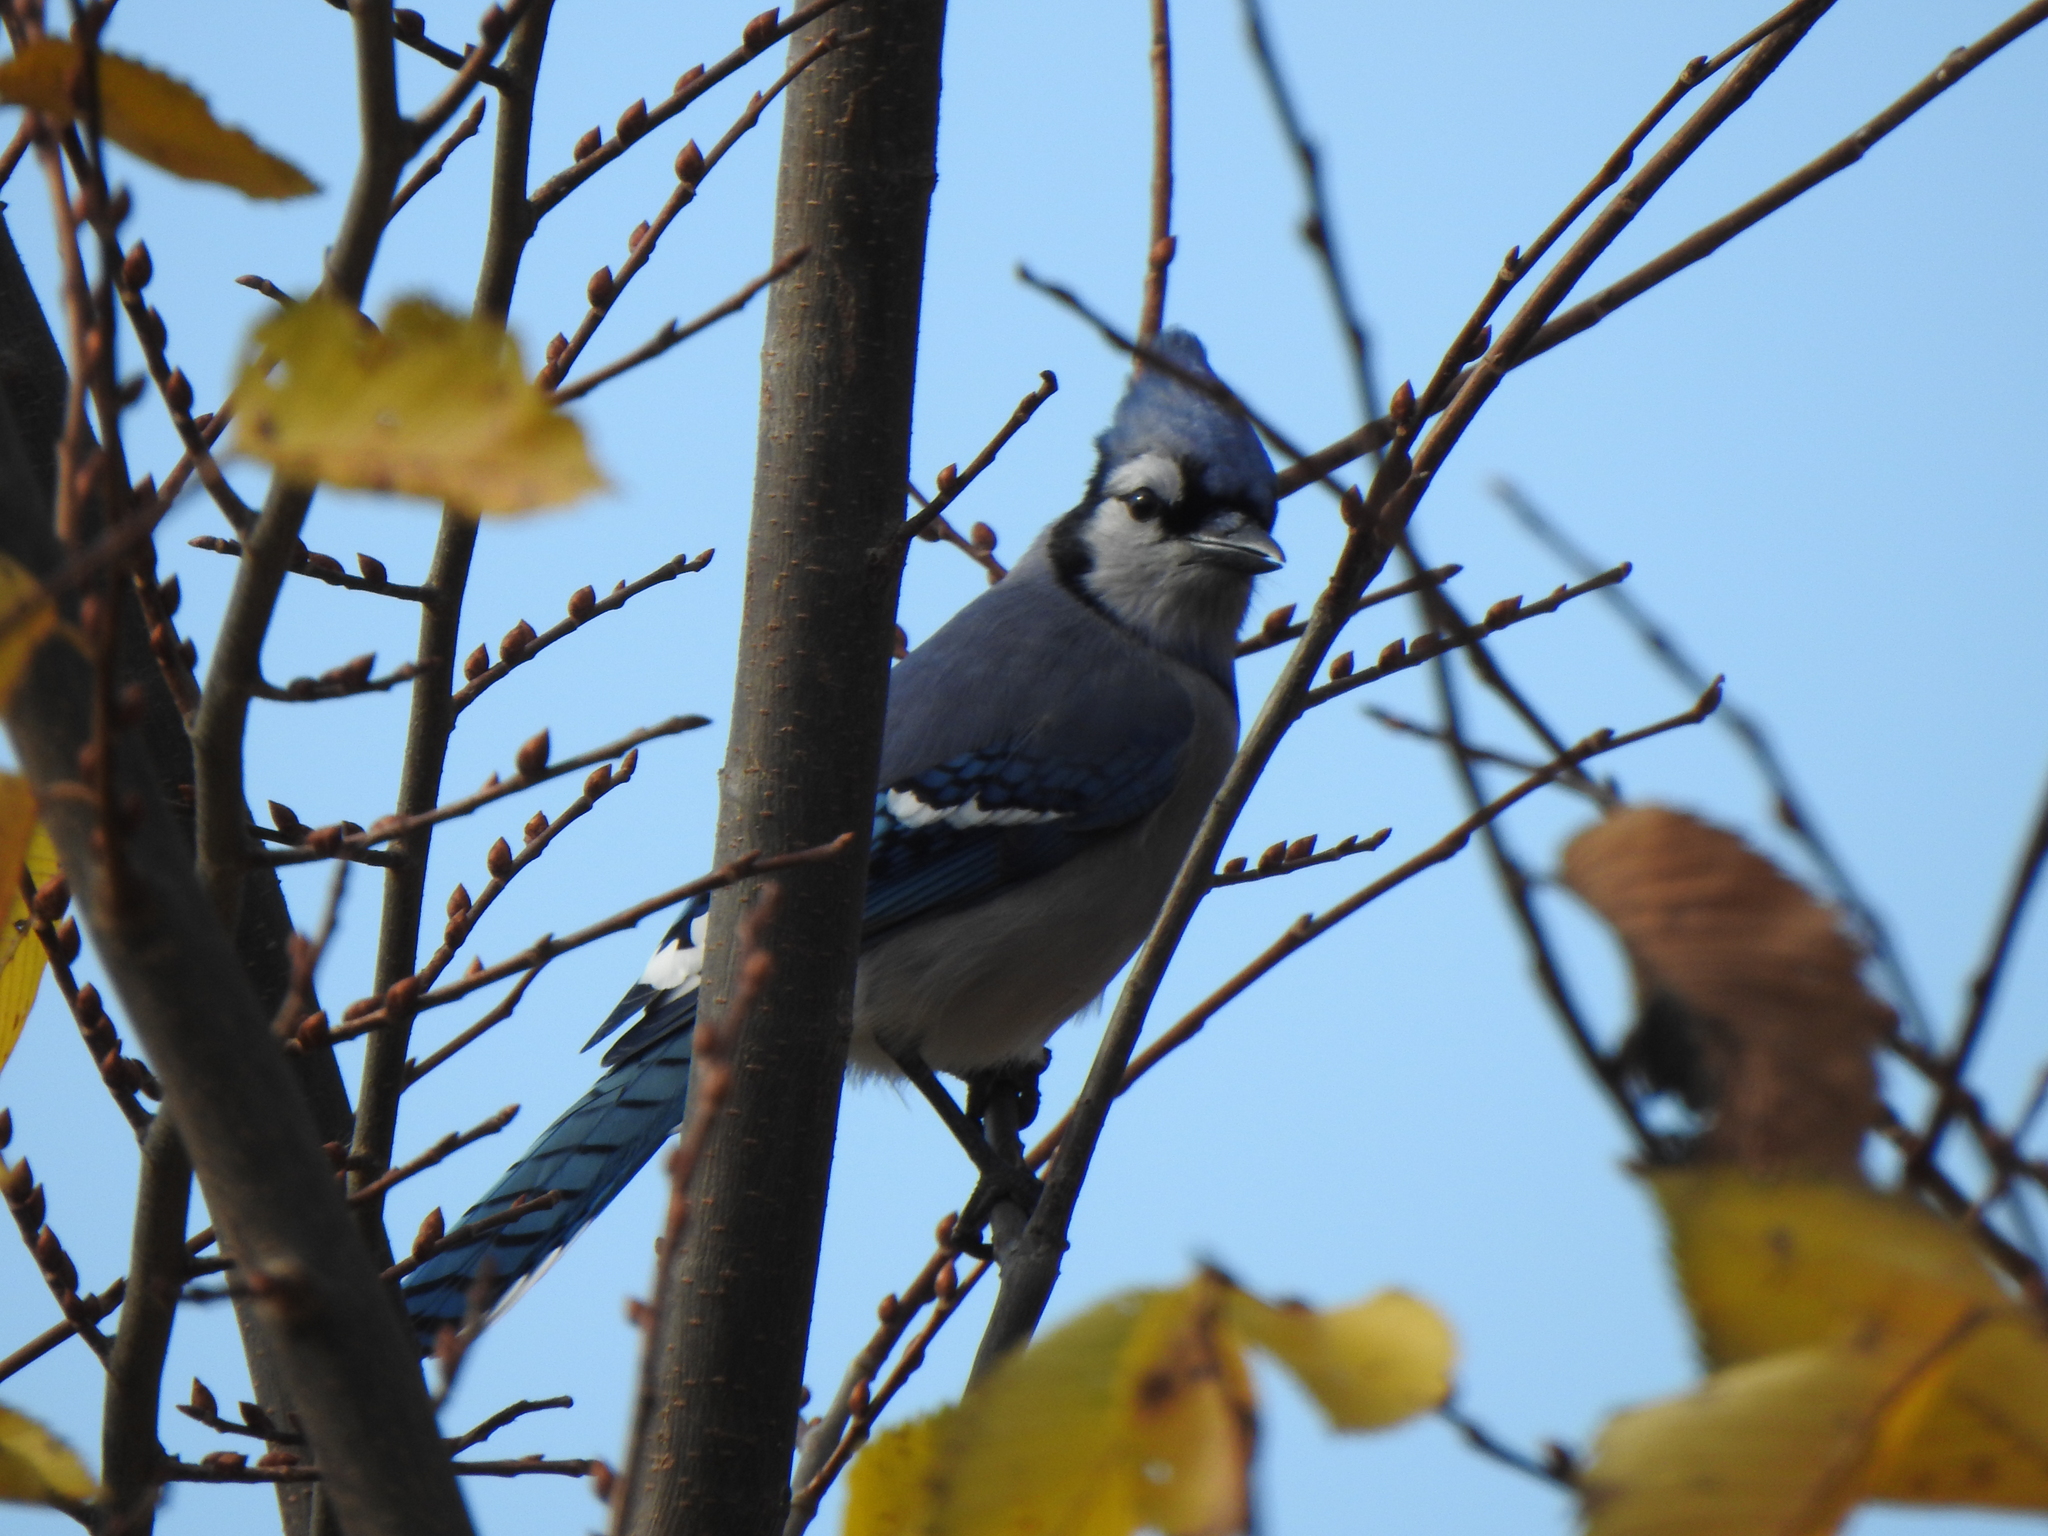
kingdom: Animalia
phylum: Chordata
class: Aves
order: Passeriformes
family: Corvidae
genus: Cyanocitta
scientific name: Cyanocitta cristata
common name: Blue jay
